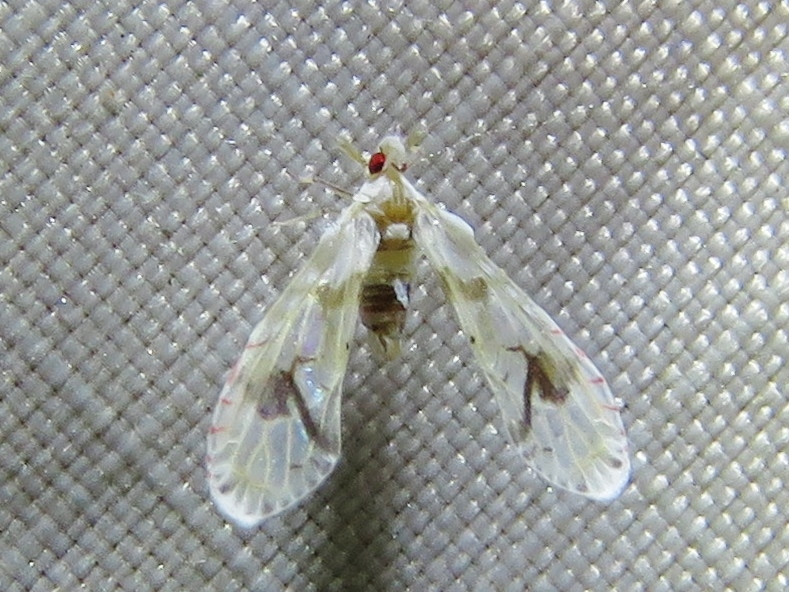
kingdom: Animalia
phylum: Arthropoda
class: Insecta
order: Hemiptera
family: Derbidae
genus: Anotia
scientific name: Anotia robertsonii
